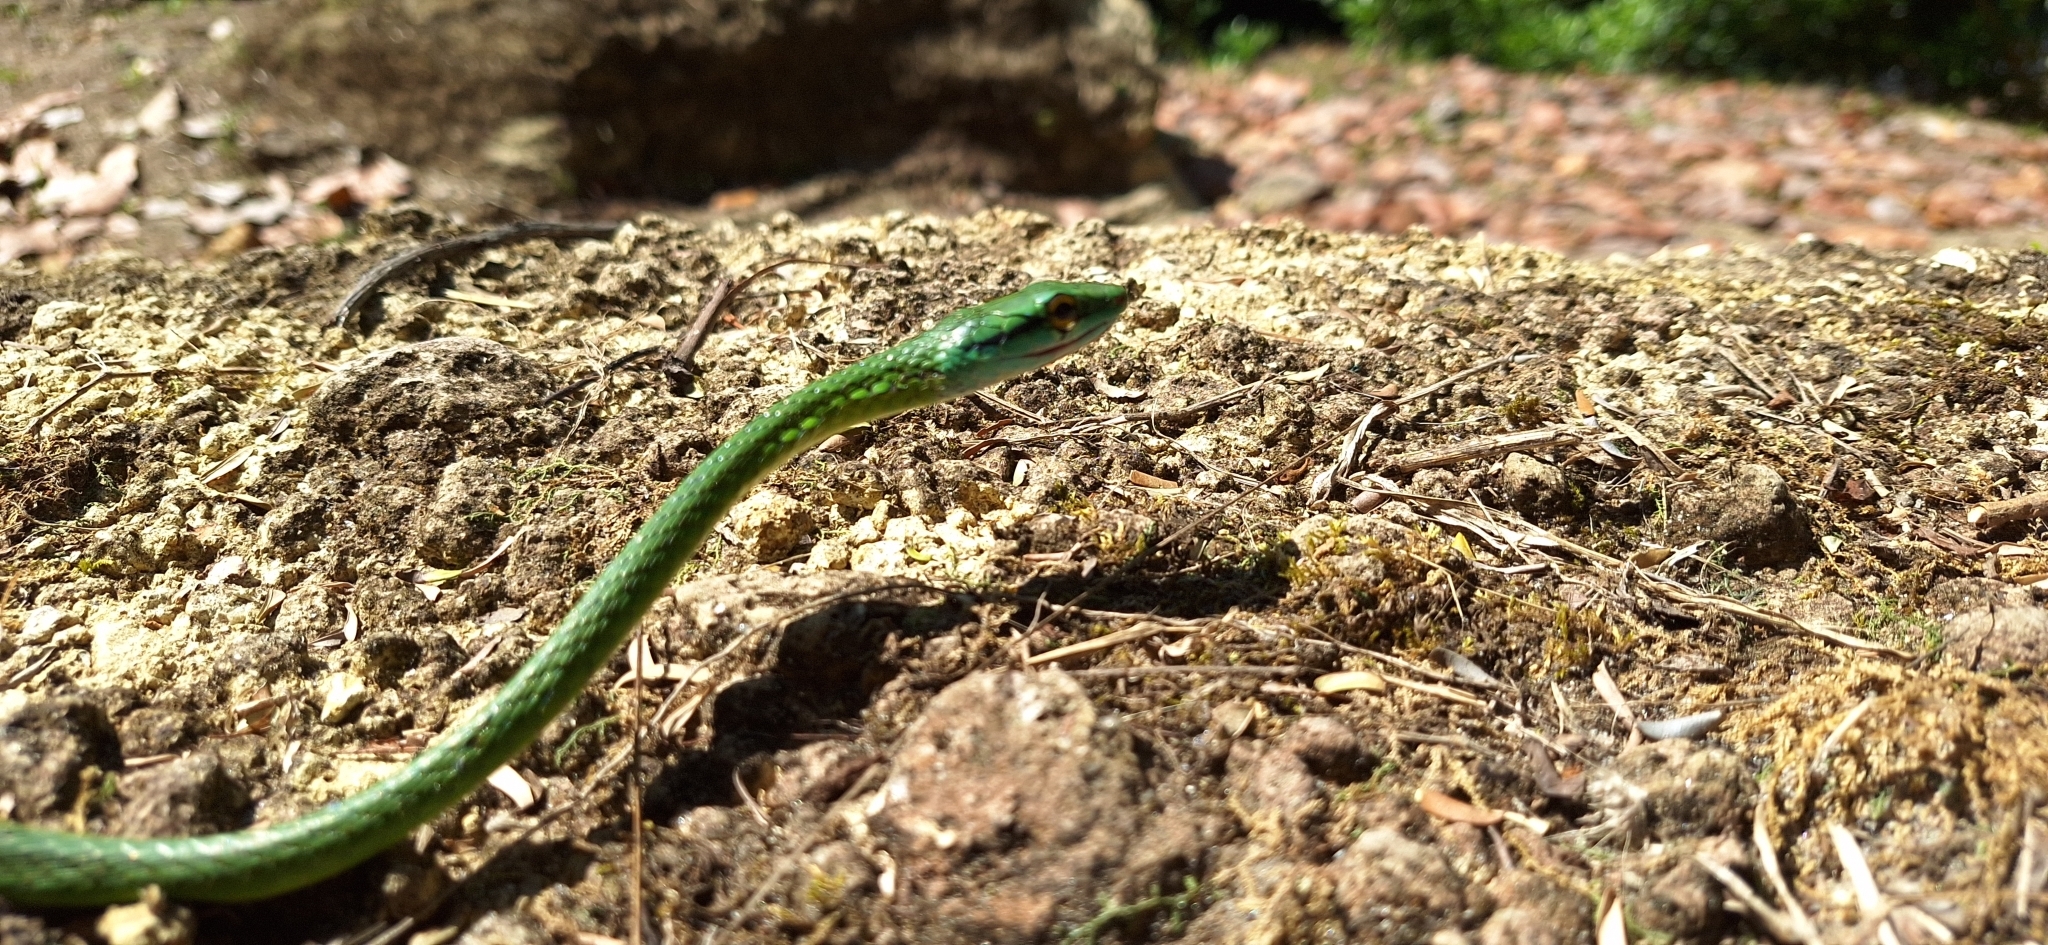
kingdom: Animalia
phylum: Chordata
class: Squamata
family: Colubridae
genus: Leptophis
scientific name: Leptophis ahaetulla
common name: Parrot snake
